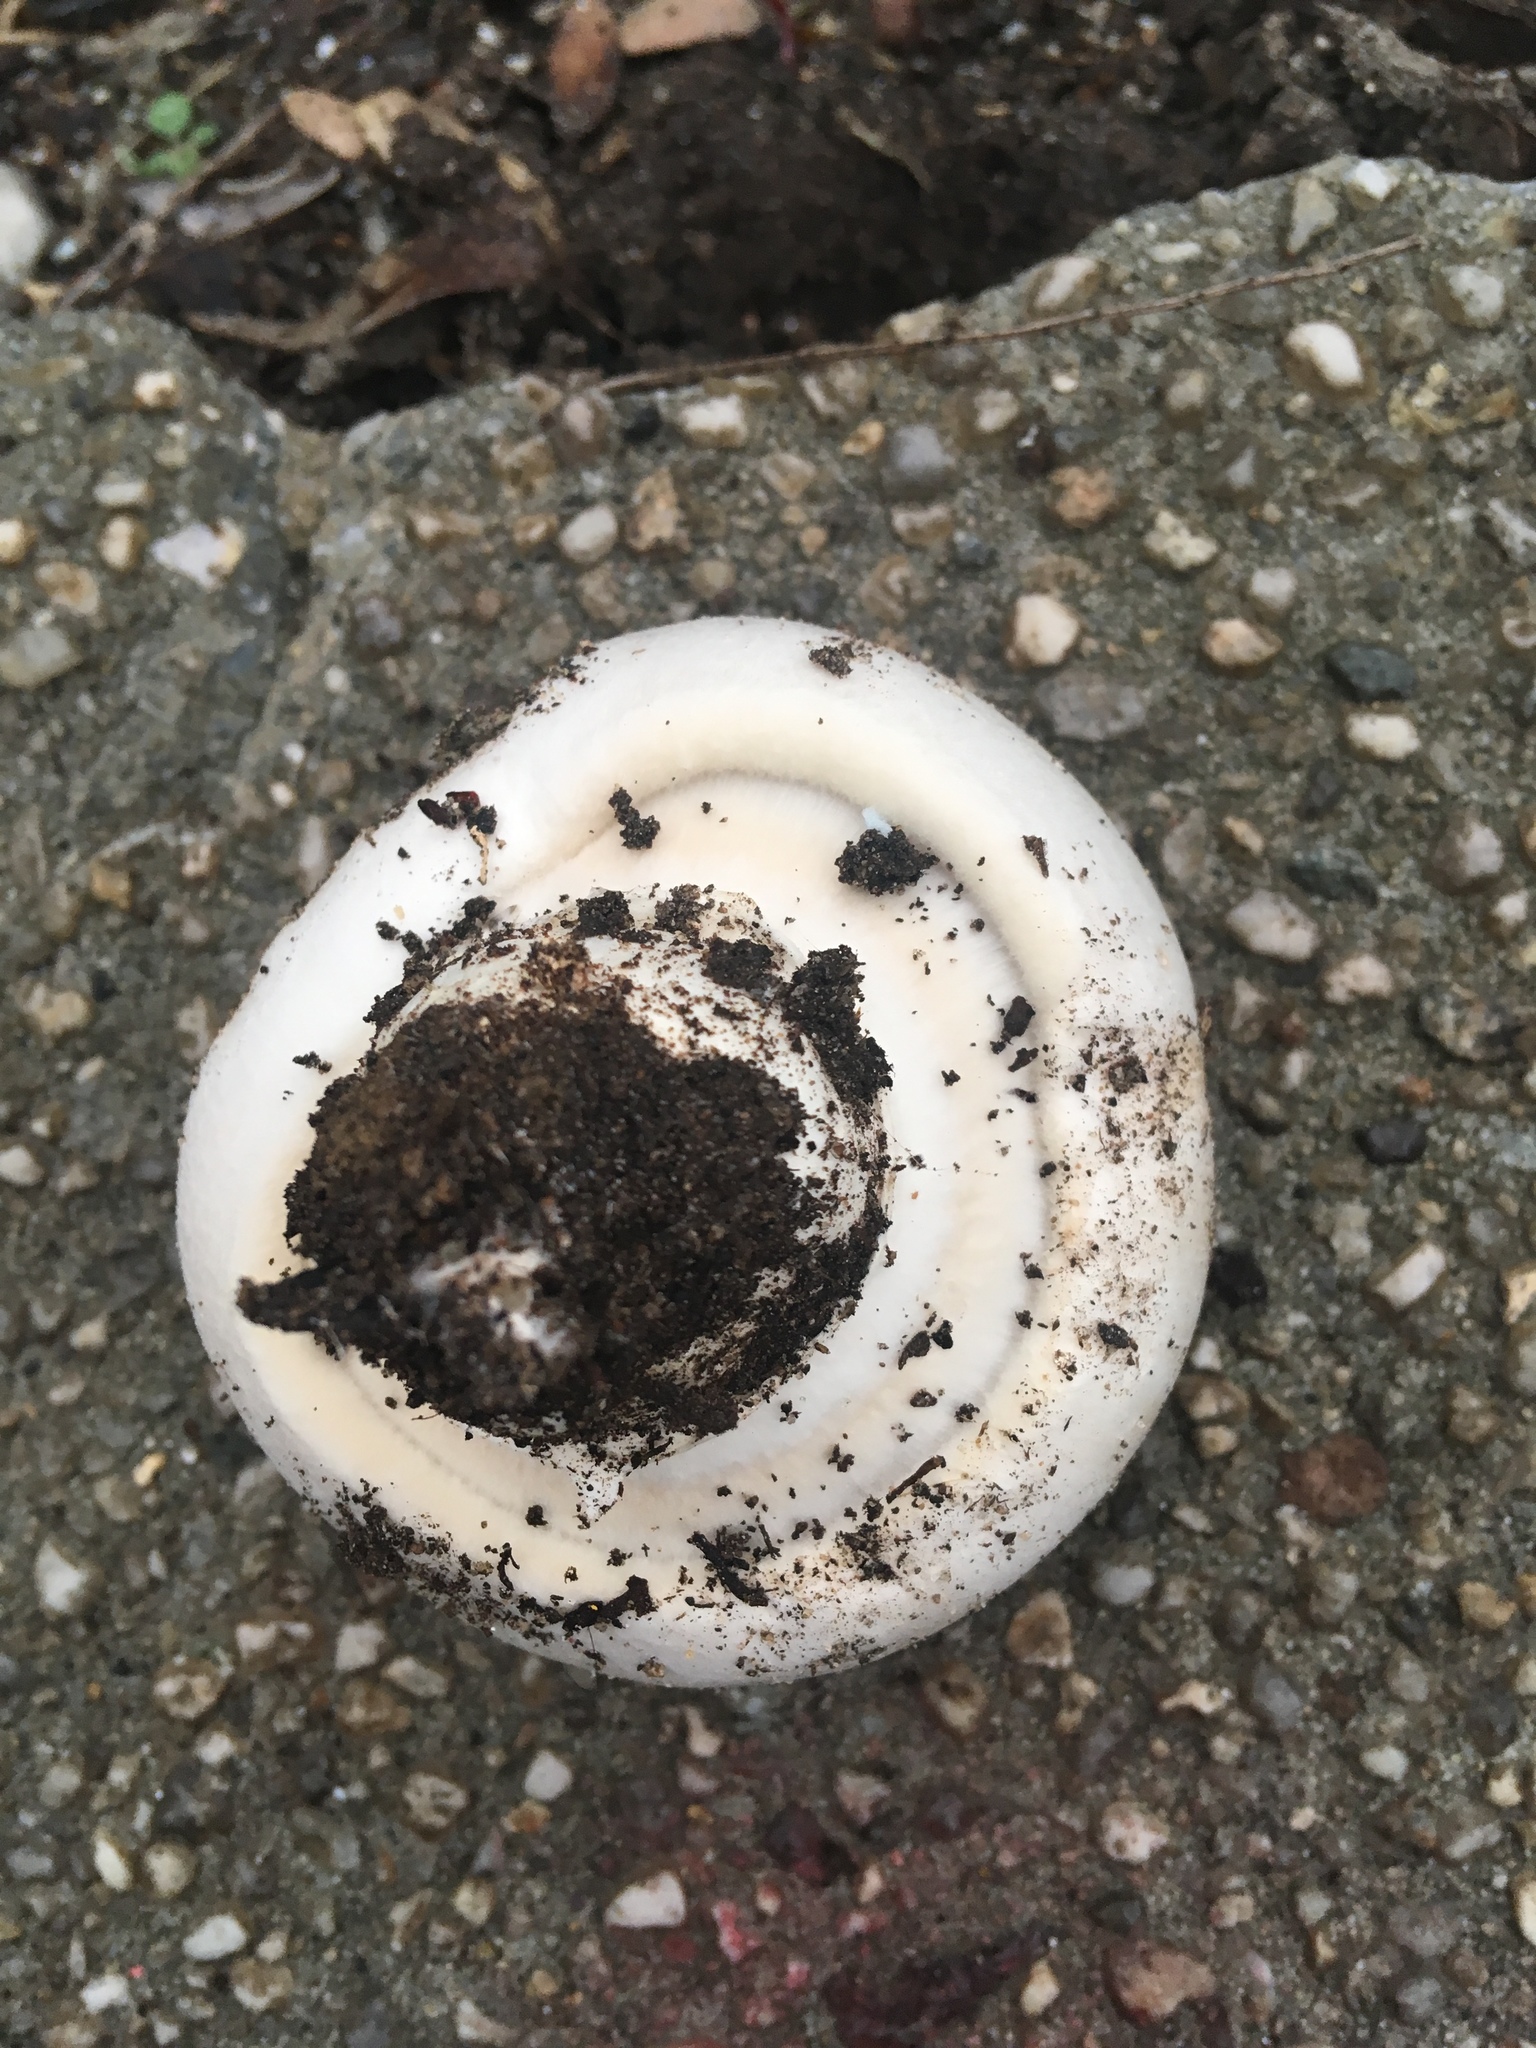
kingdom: Fungi
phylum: Basidiomycota
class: Agaricomycetes
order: Agaricales
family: Agaricaceae
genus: Agaricus
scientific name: Agaricus bitorquis
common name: Pavement mushroom
